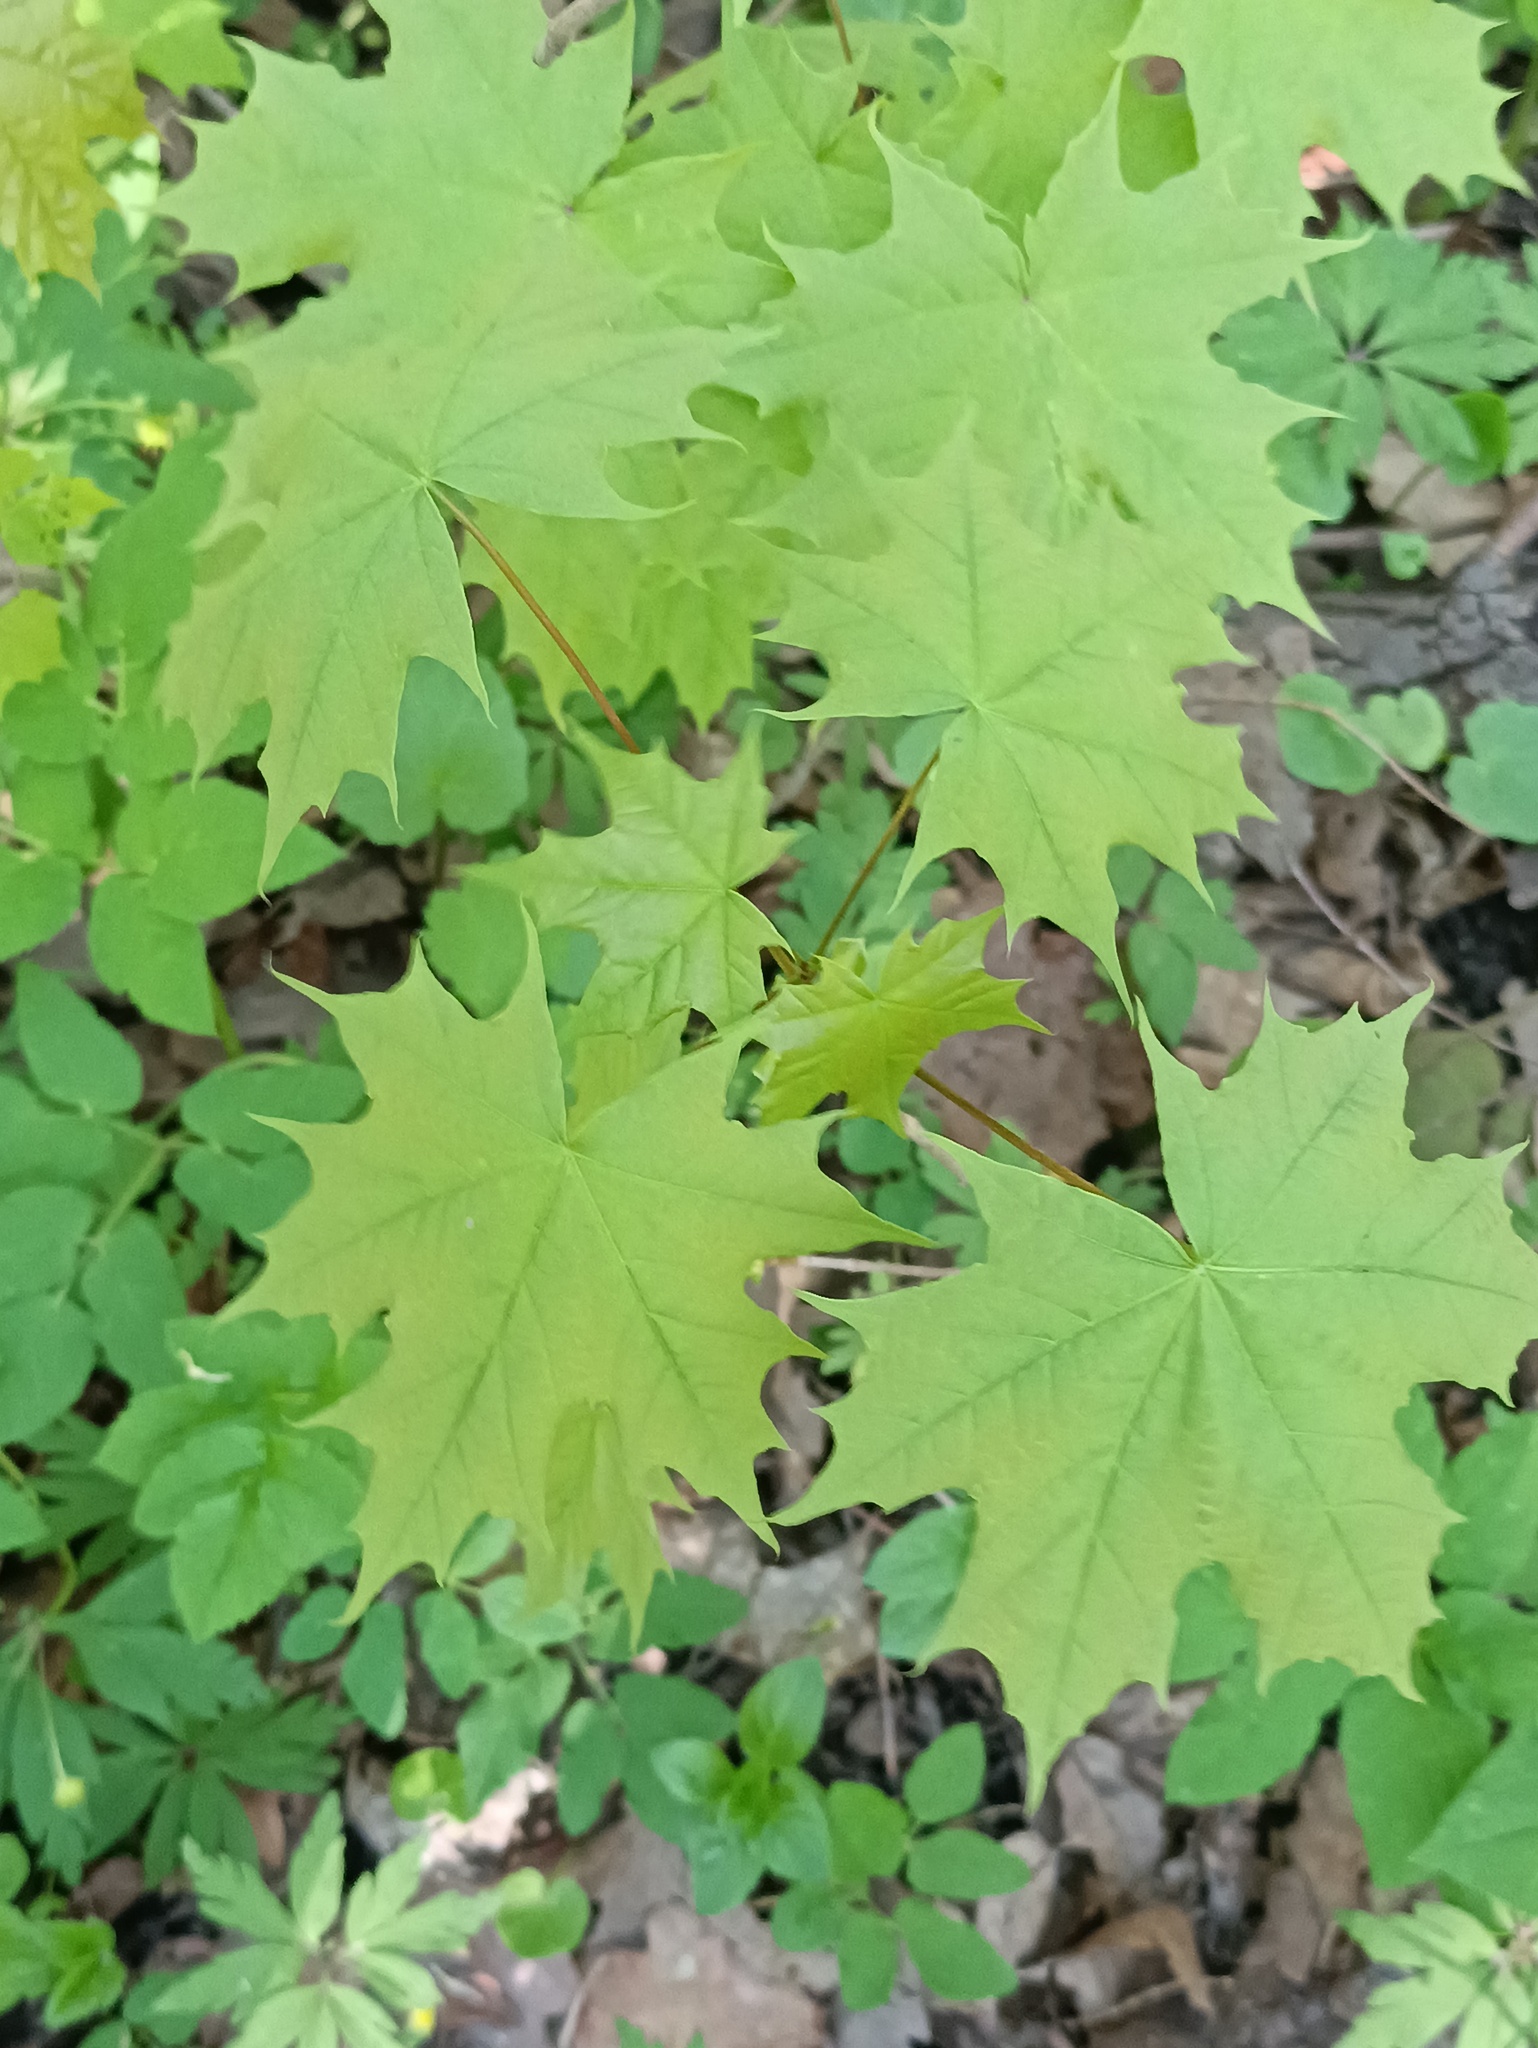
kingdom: Plantae
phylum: Tracheophyta
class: Magnoliopsida
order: Sapindales
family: Sapindaceae
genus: Acer
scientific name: Acer platanoides
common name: Norway maple
